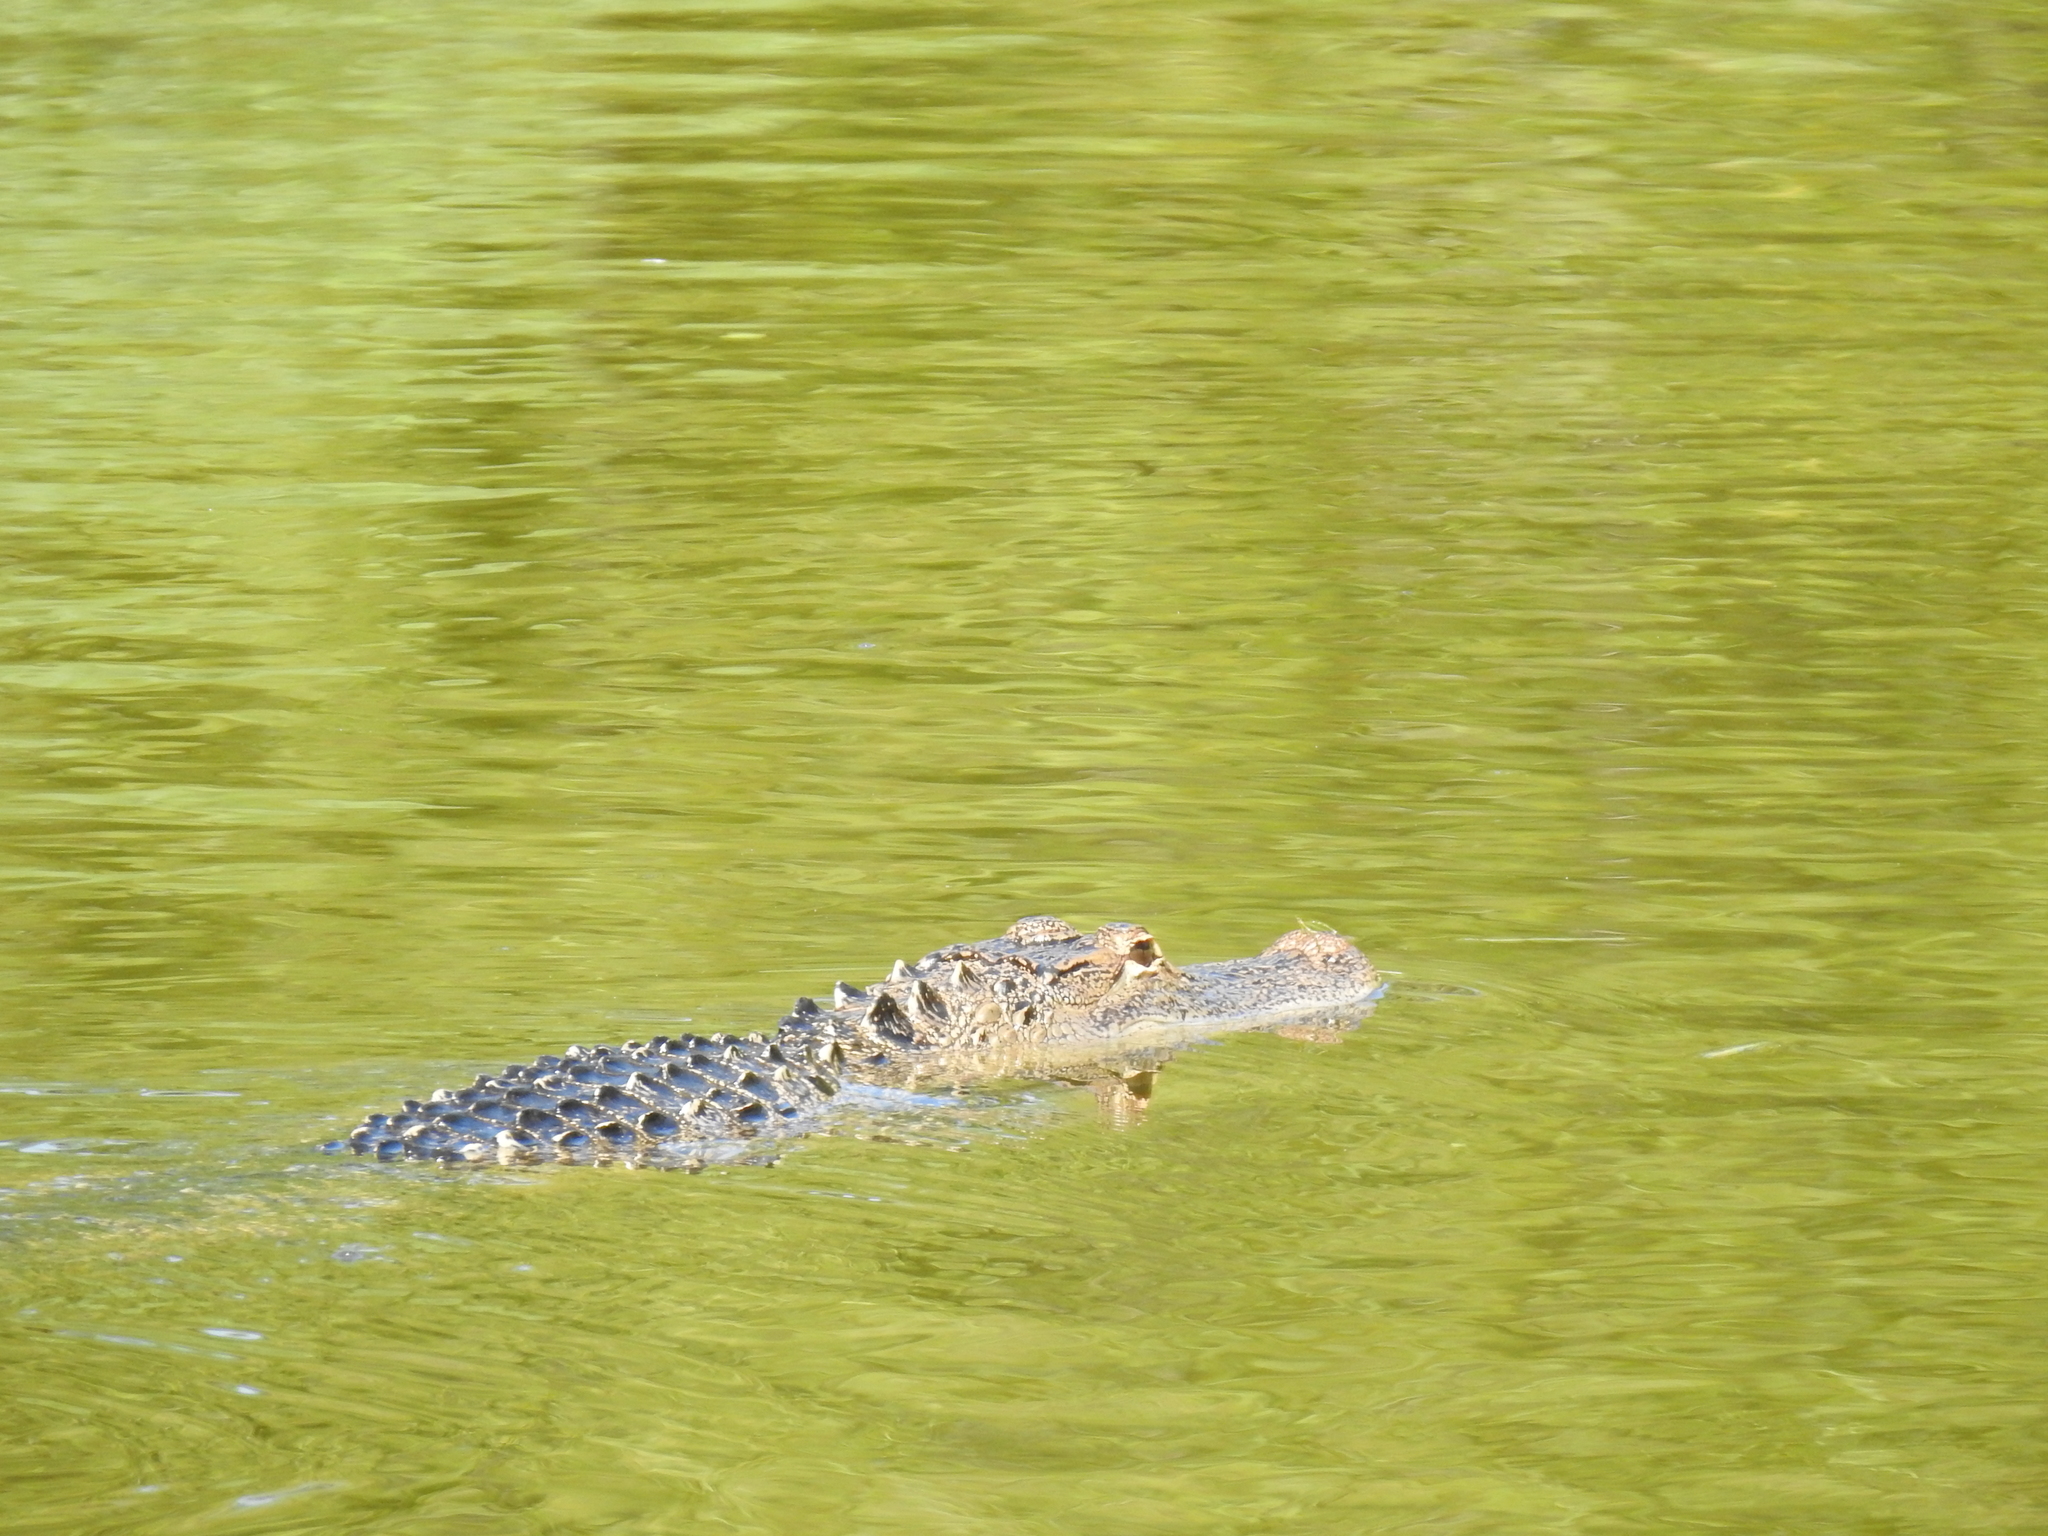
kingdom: Animalia
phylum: Chordata
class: Crocodylia
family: Alligatoridae
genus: Alligator
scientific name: Alligator mississippiensis
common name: American alligator
